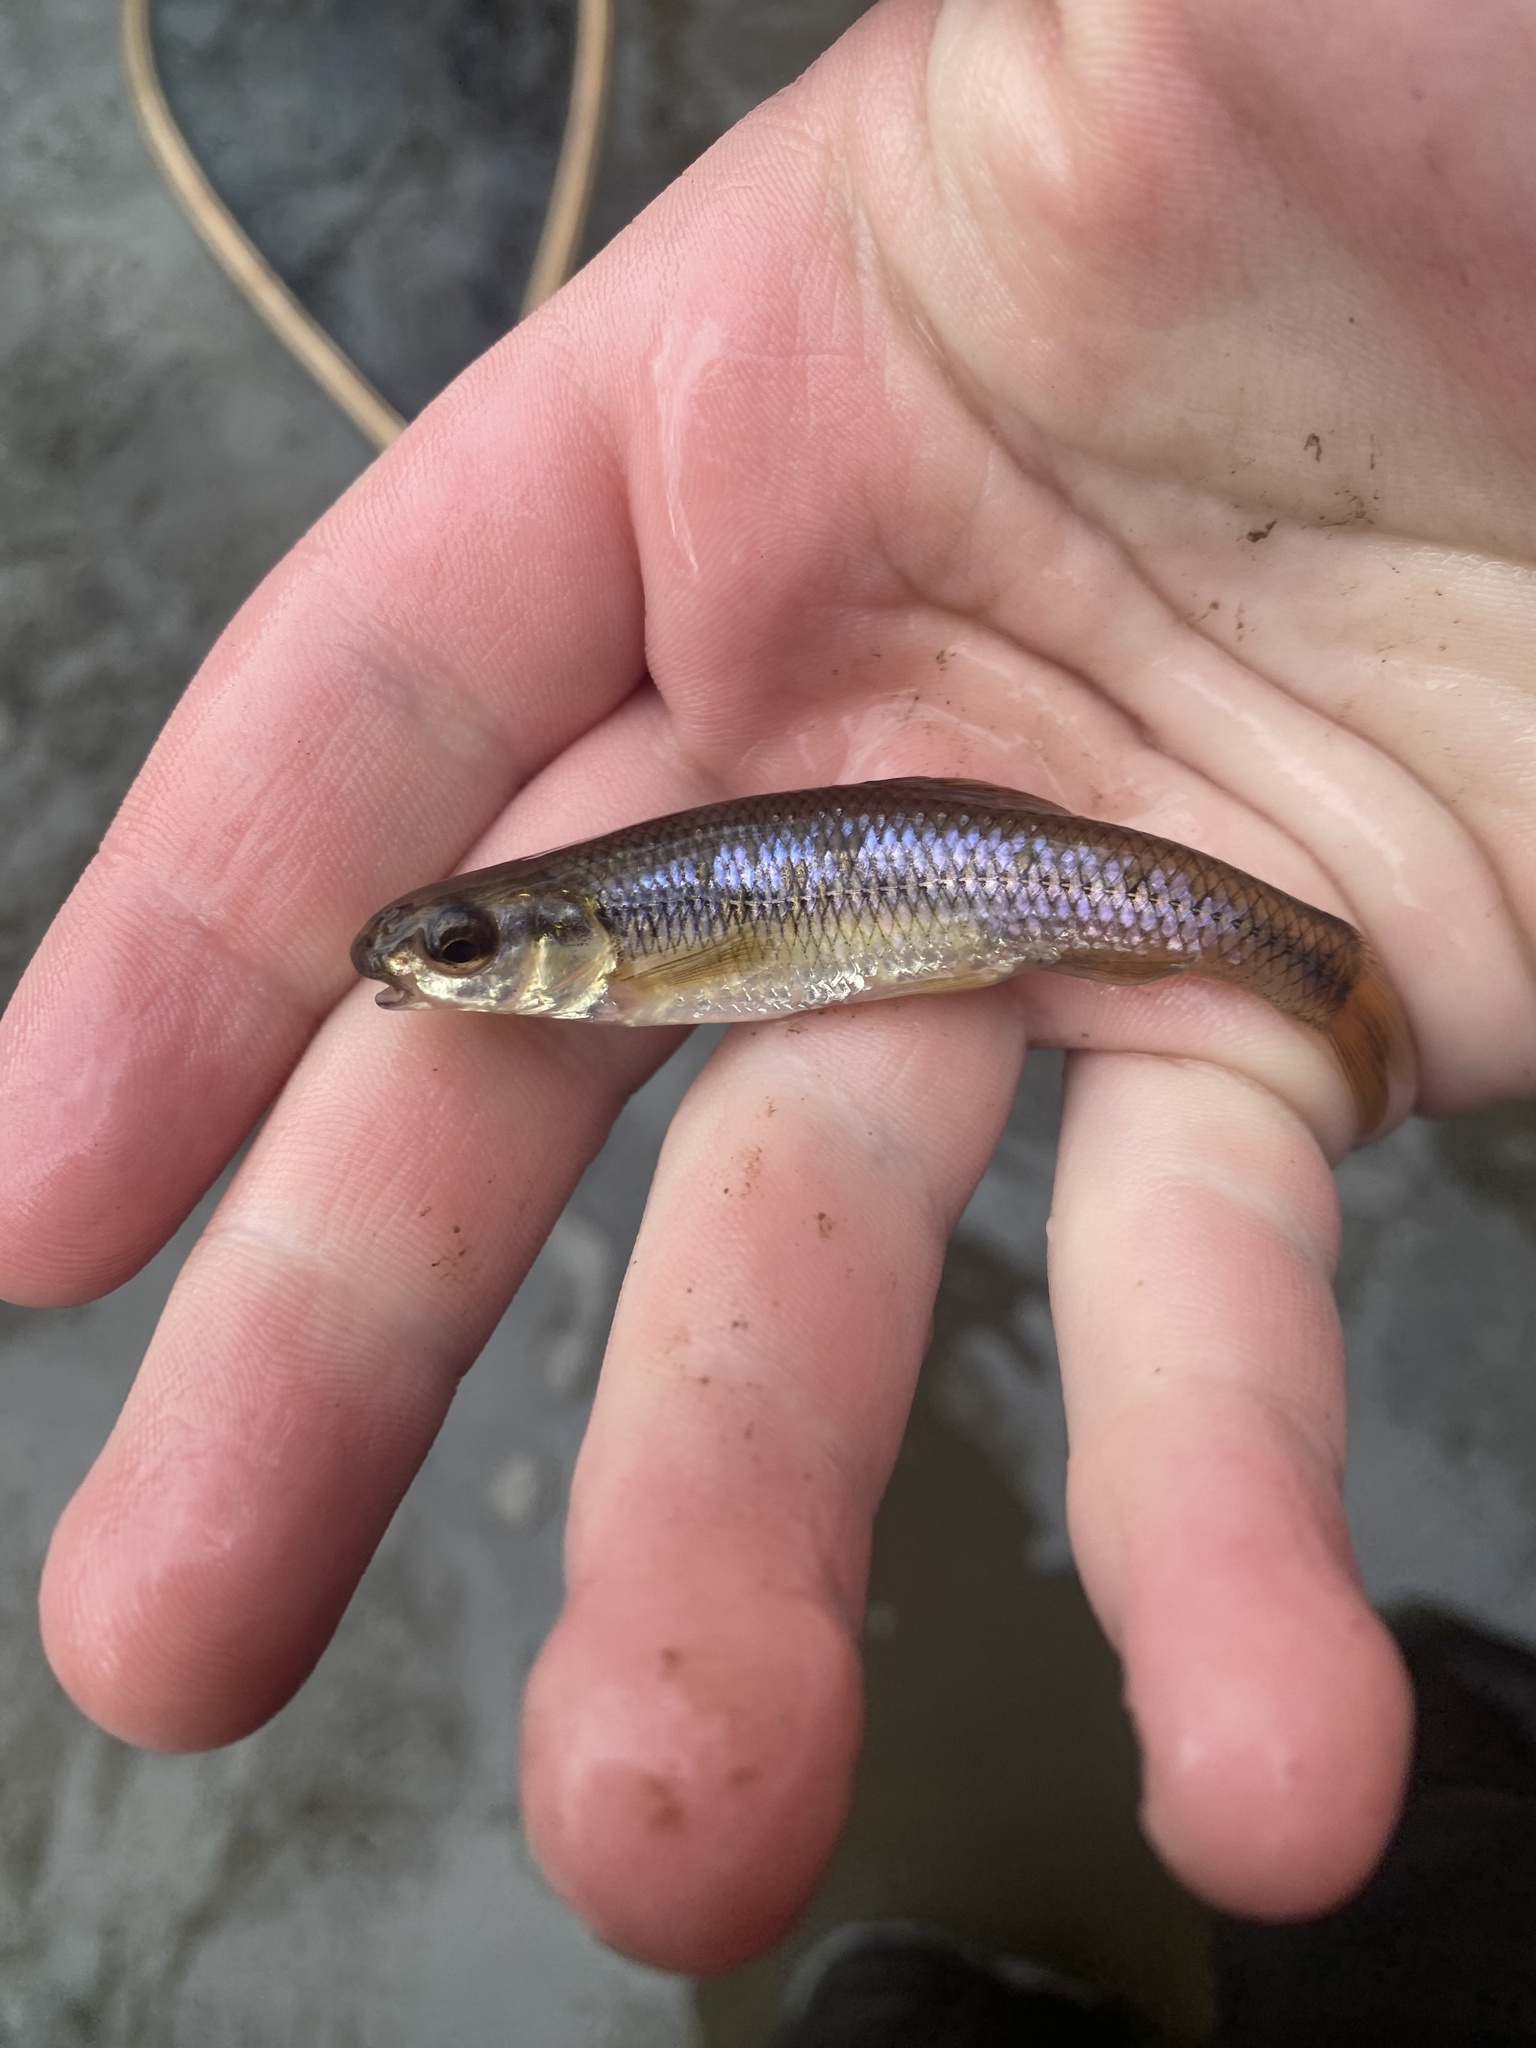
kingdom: Animalia
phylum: Chordata
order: Cypriniformes
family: Cyprinidae
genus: Pimephales
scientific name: Pimephales notatus
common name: Bluntnose minnow
